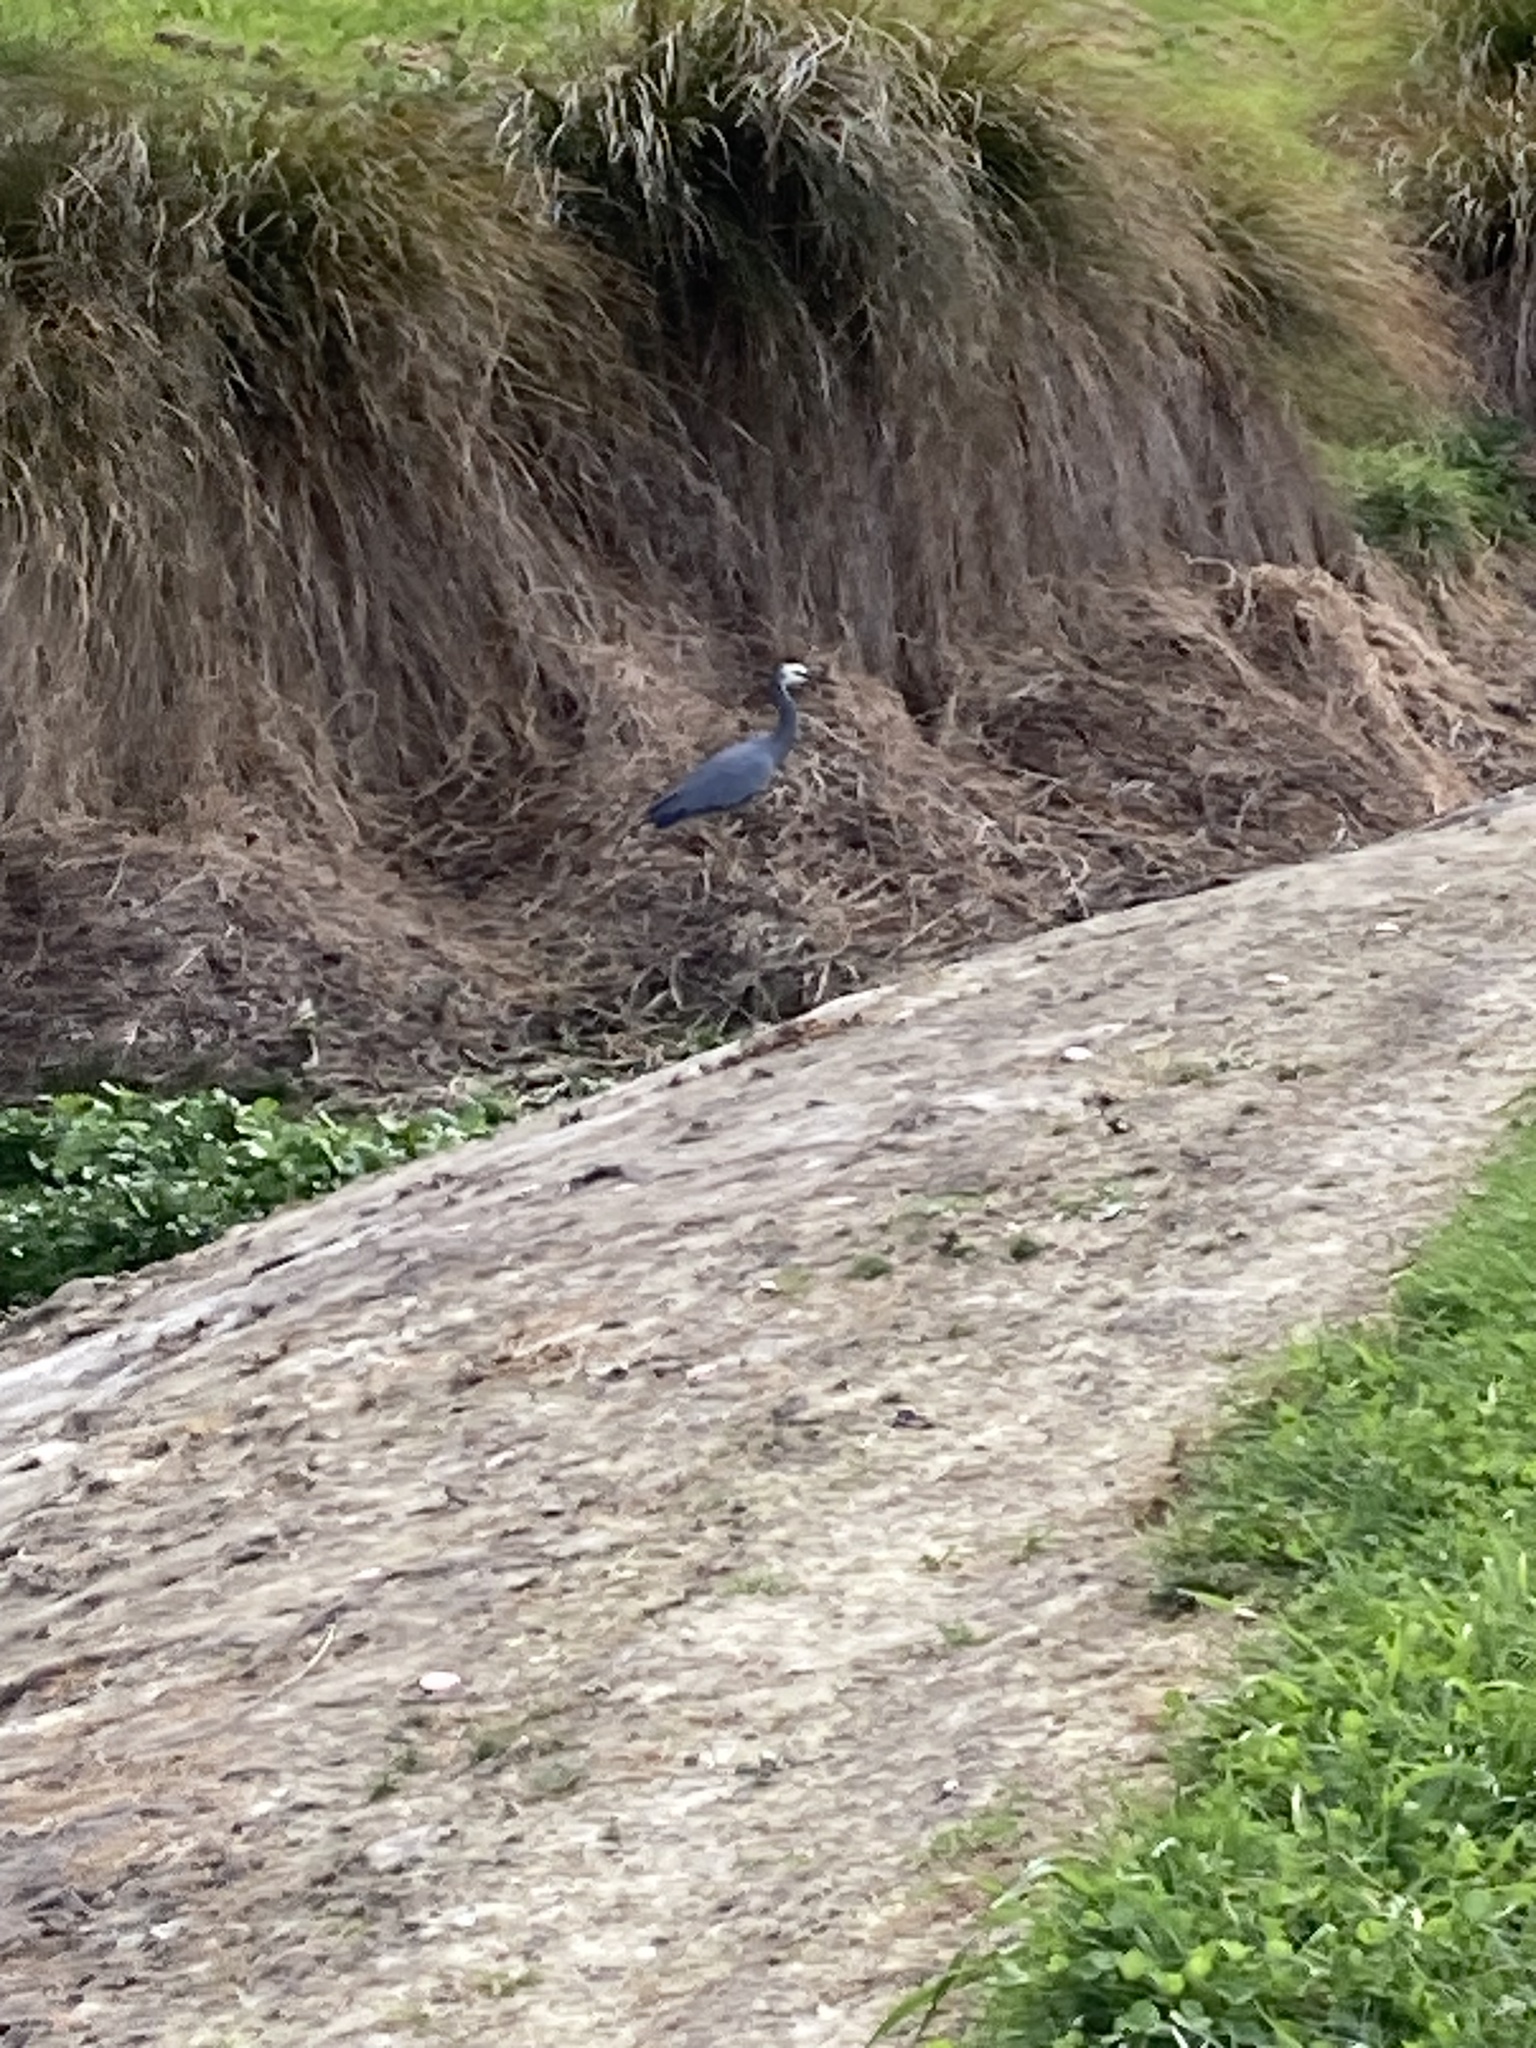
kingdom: Animalia
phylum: Chordata
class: Aves
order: Pelecaniformes
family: Ardeidae
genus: Egretta
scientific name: Egretta novaehollandiae
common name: White-faced heron
